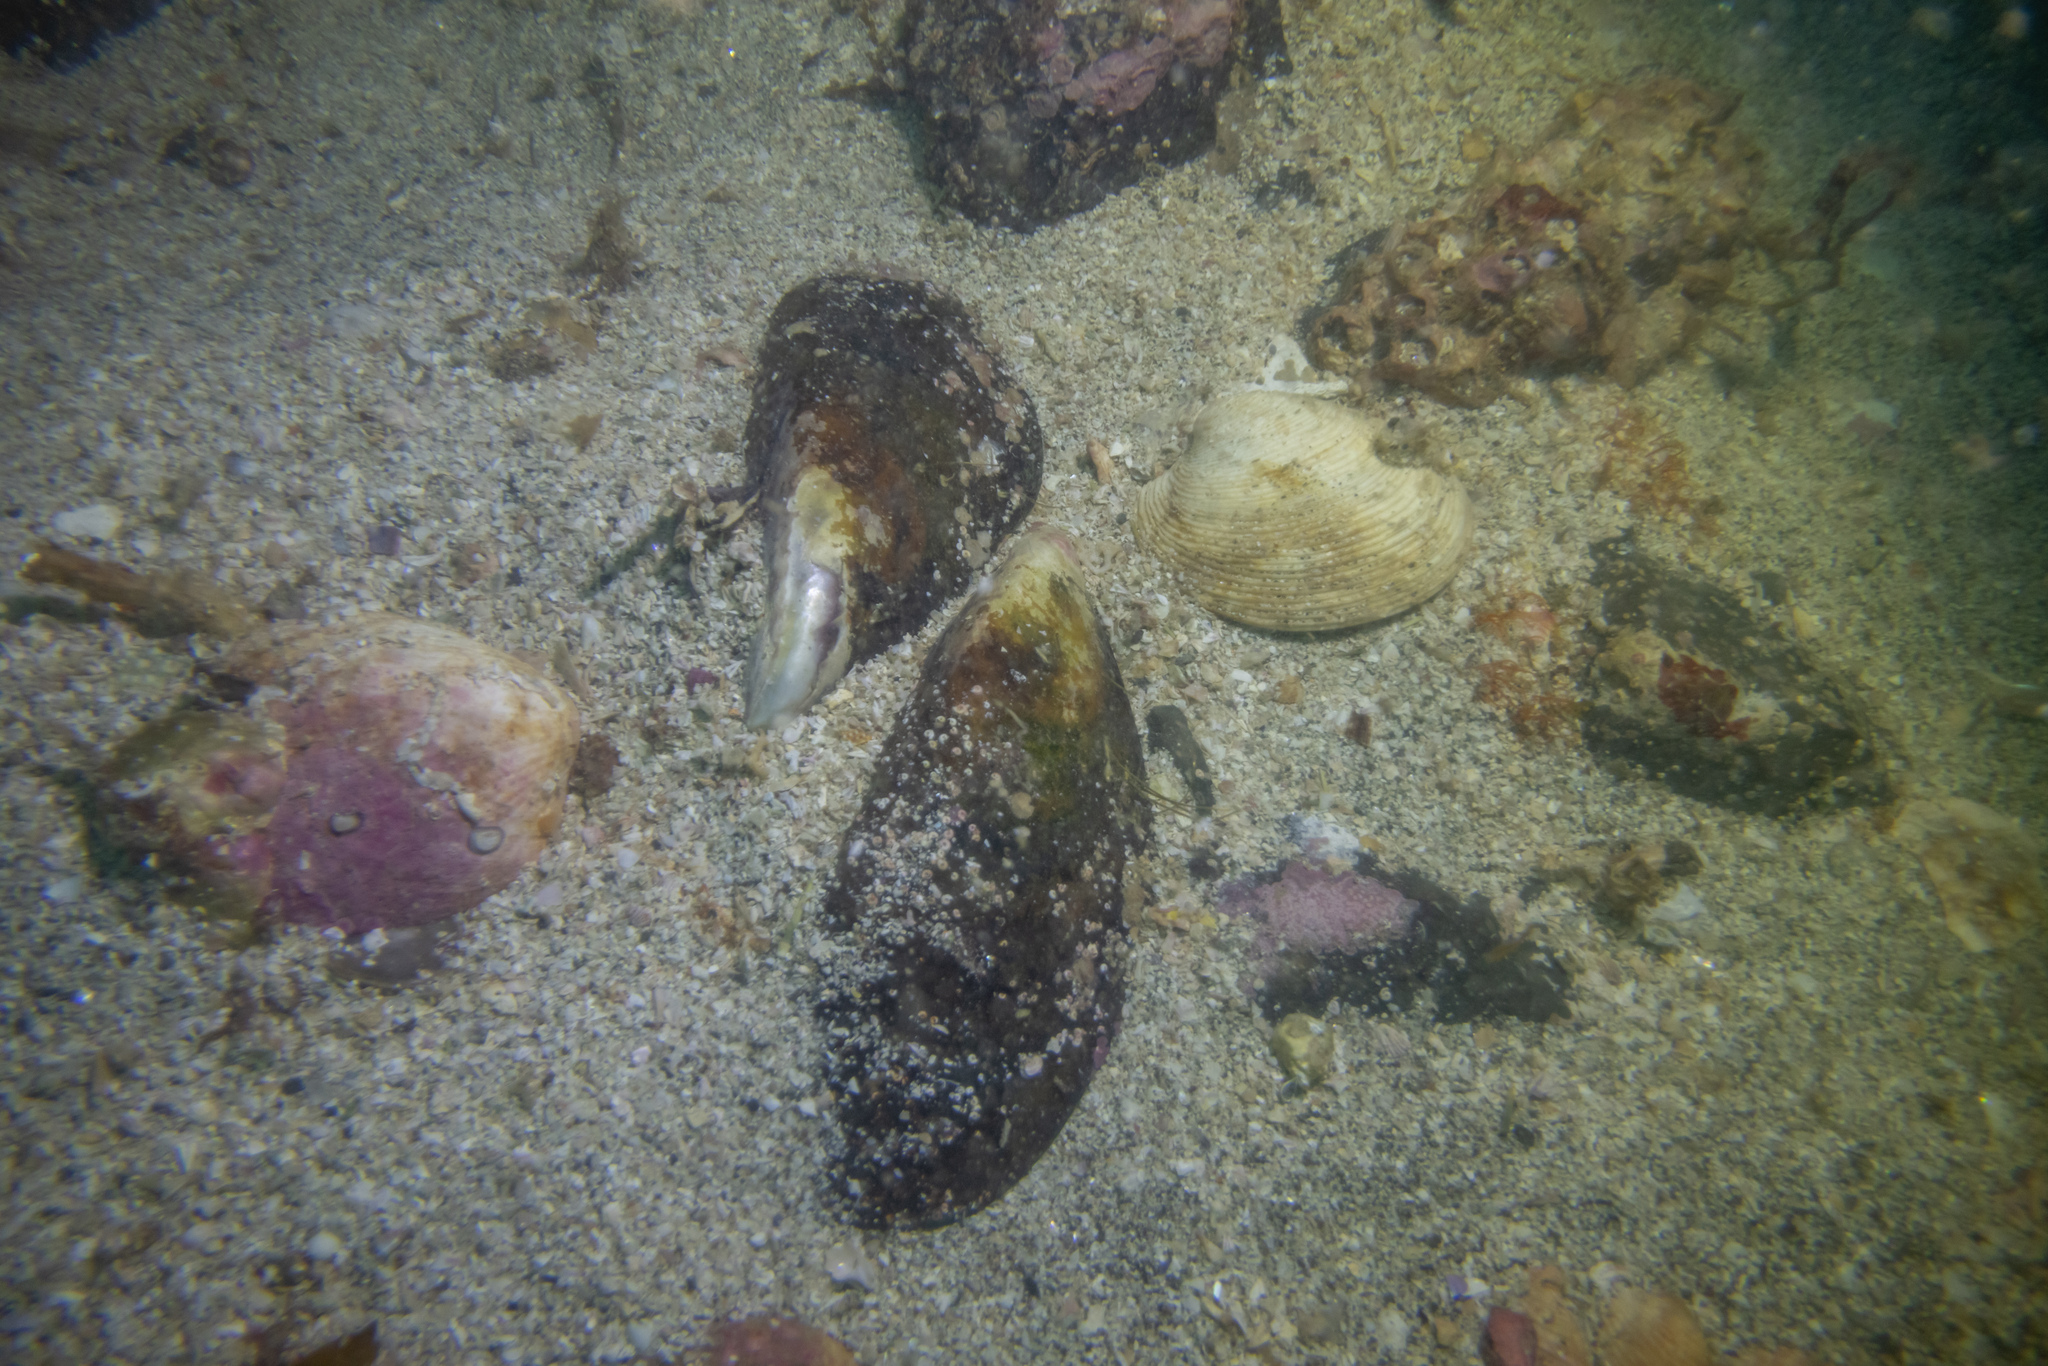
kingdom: Animalia
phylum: Mollusca
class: Bivalvia
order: Mytilida
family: Mytilidae
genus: Perna
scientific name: Perna canaliculus
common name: New zealand greenshelltm
